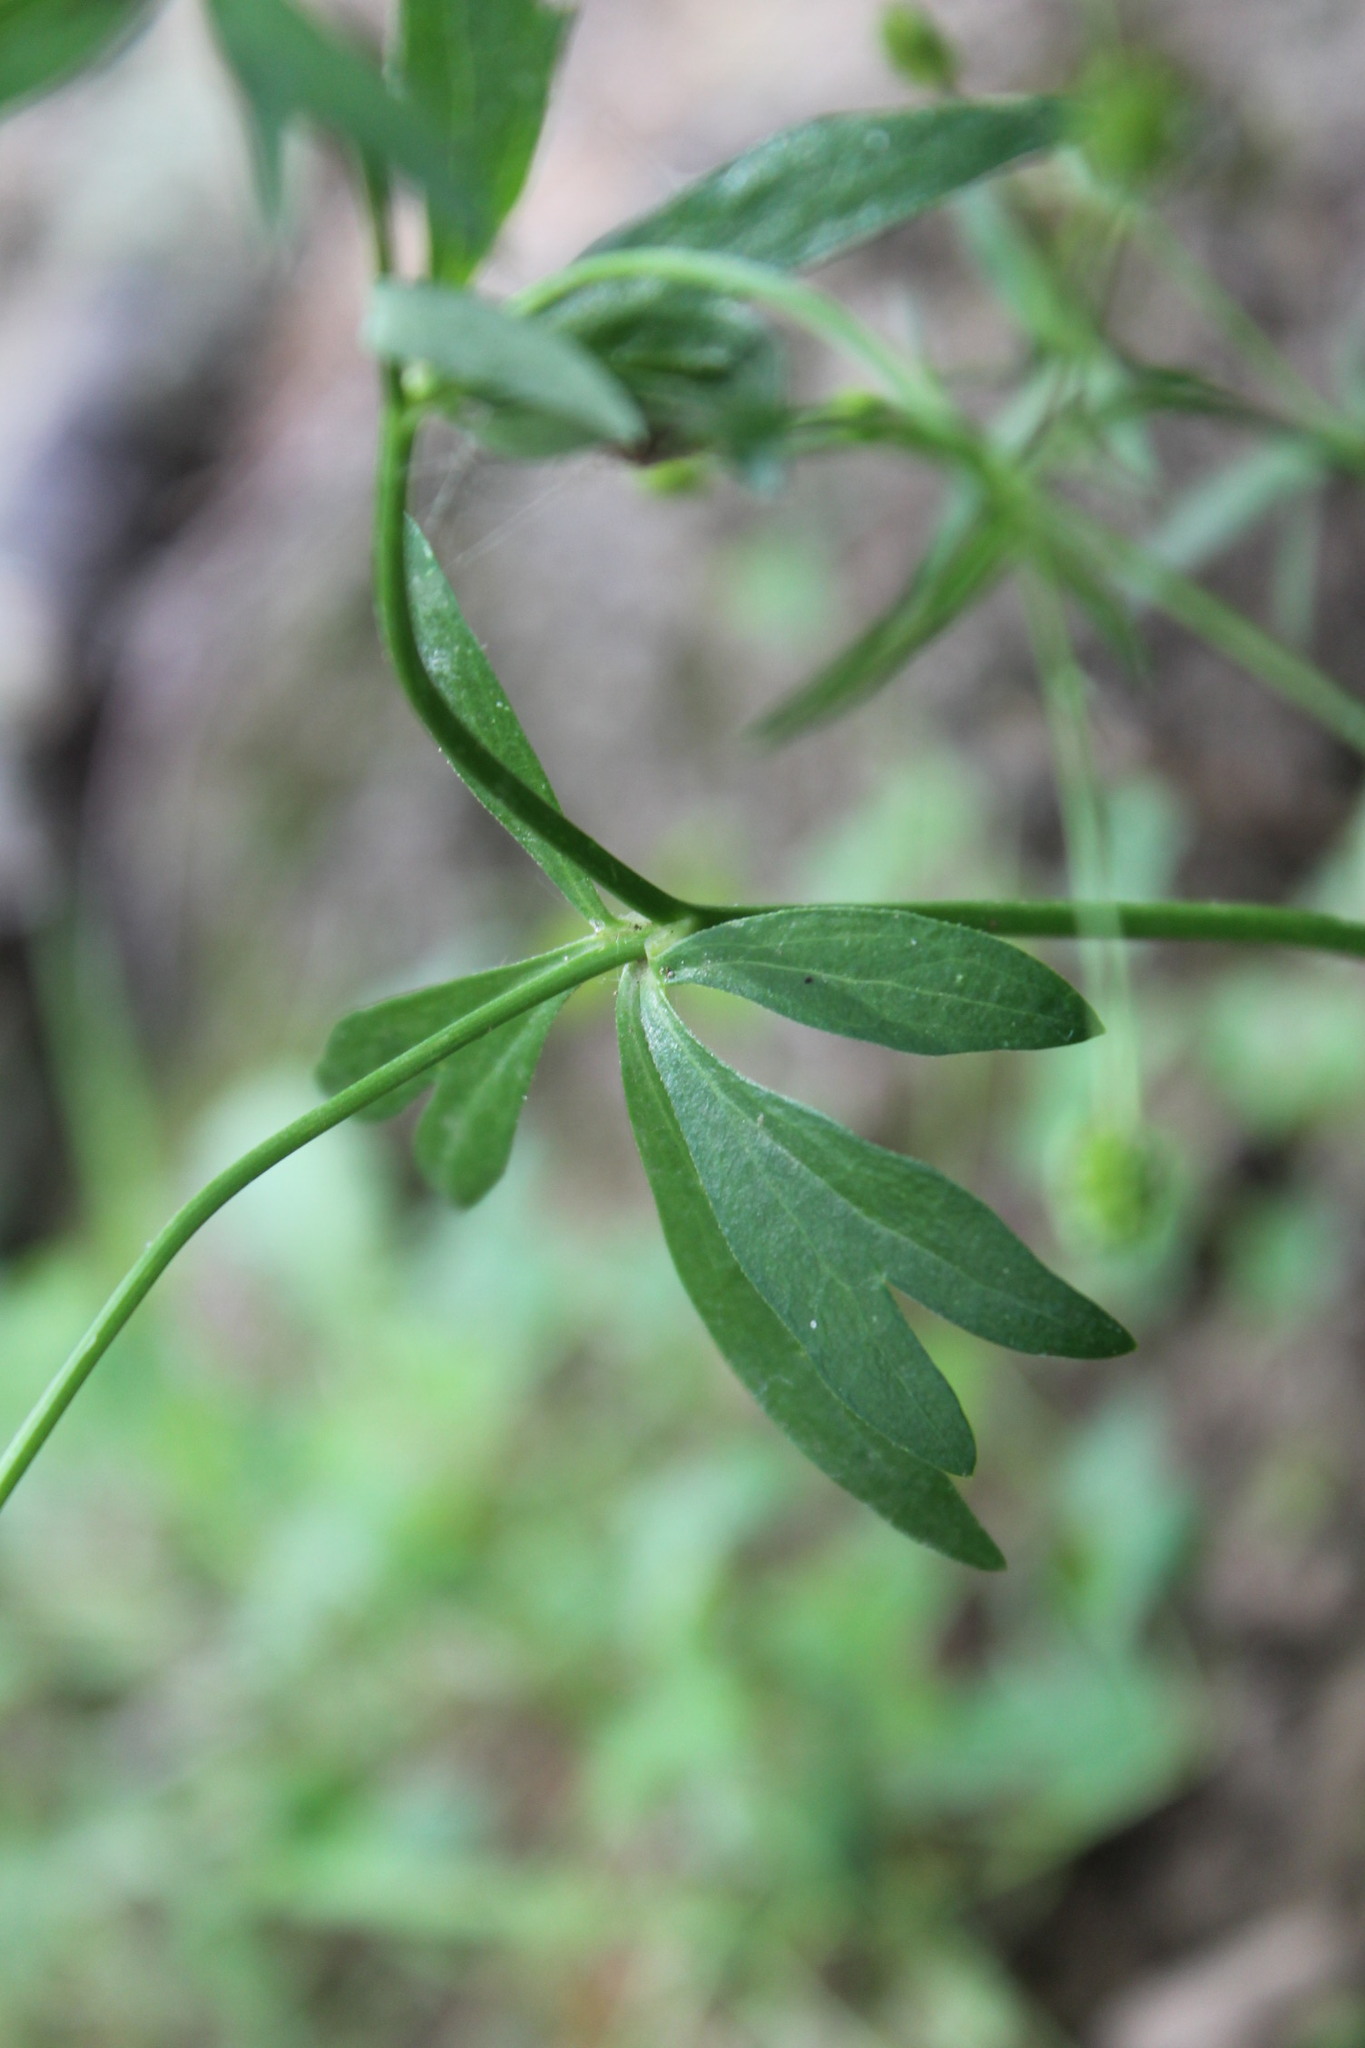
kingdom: Plantae
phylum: Tracheophyta
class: Magnoliopsida
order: Ranunculales
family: Ranunculaceae
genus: Ranunculus
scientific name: Ranunculus abortivus
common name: Early wood buttercup
